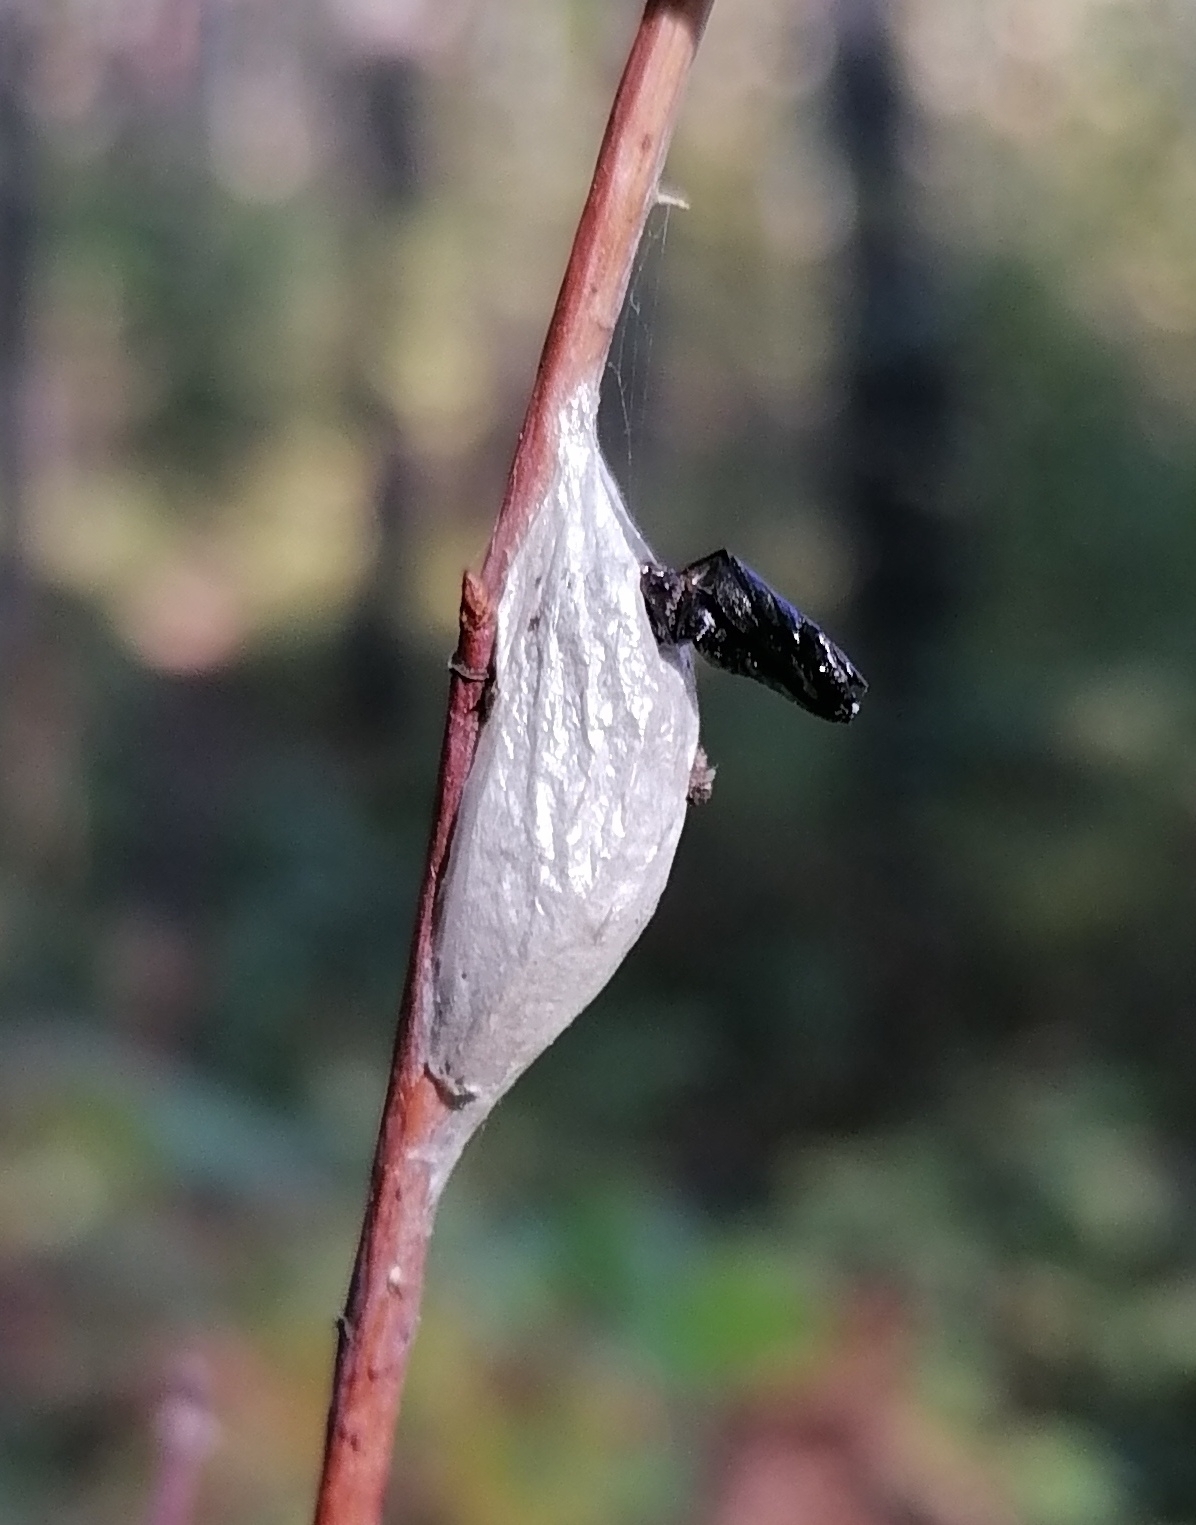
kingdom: Animalia
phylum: Arthropoda
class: Insecta
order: Lepidoptera
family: Lasiocampidae
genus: Euthrix
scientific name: Euthrix potatoria
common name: Drinker
